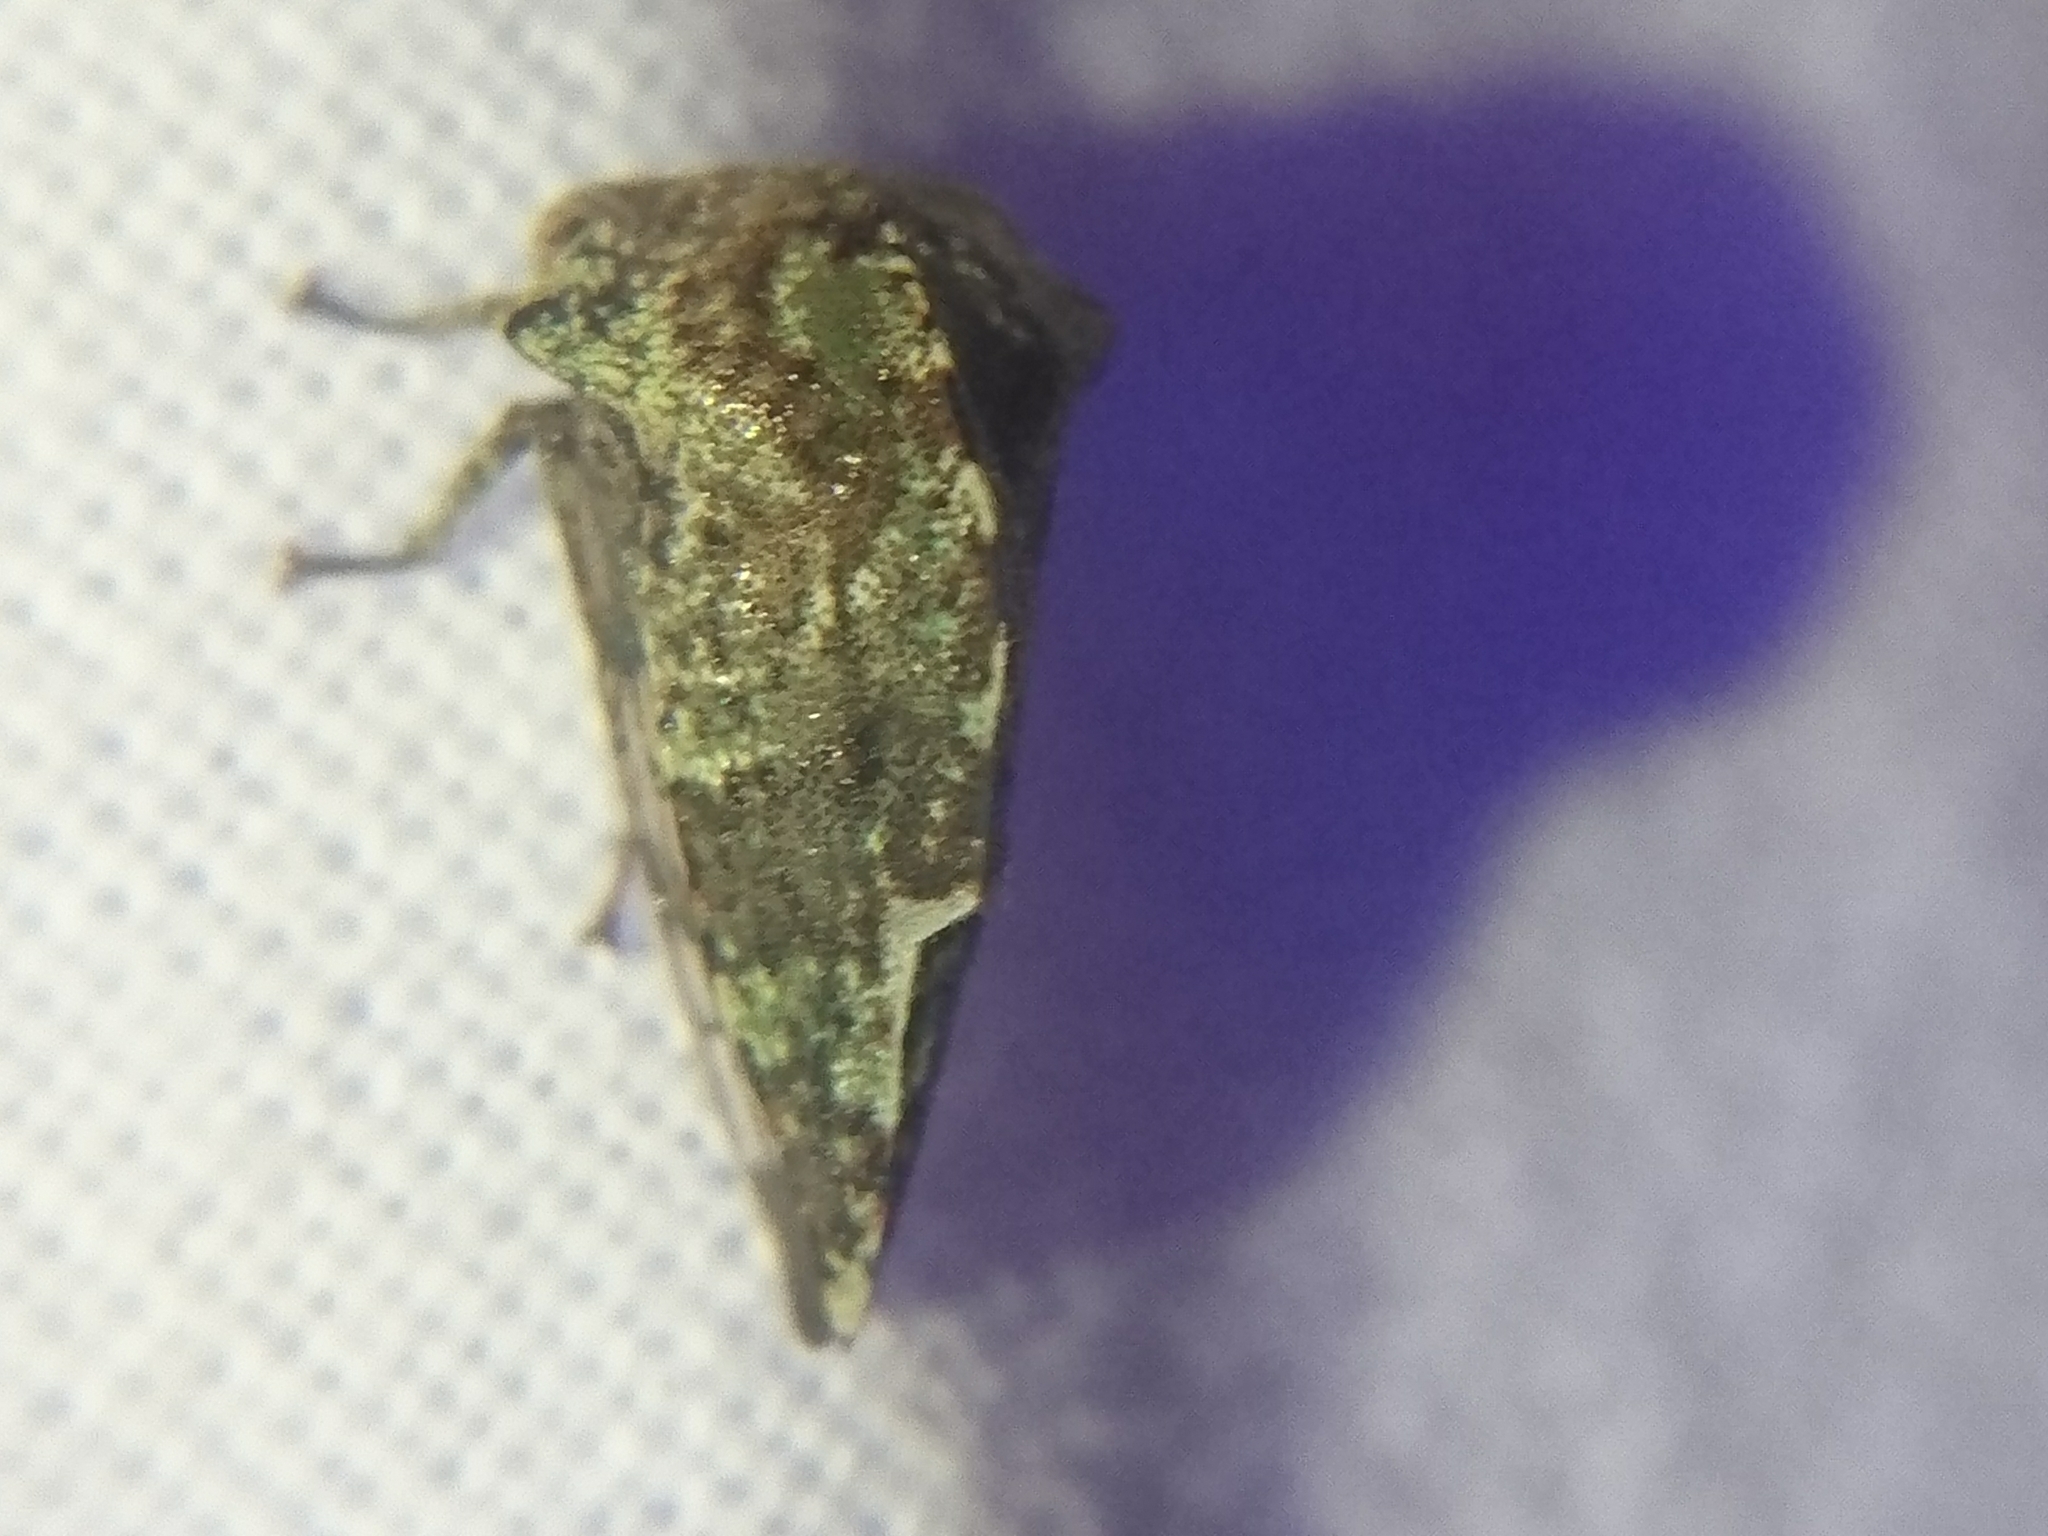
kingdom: Animalia
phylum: Arthropoda
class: Insecta
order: Hemiptera
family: Membracidae
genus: Telamona
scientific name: Telamona
